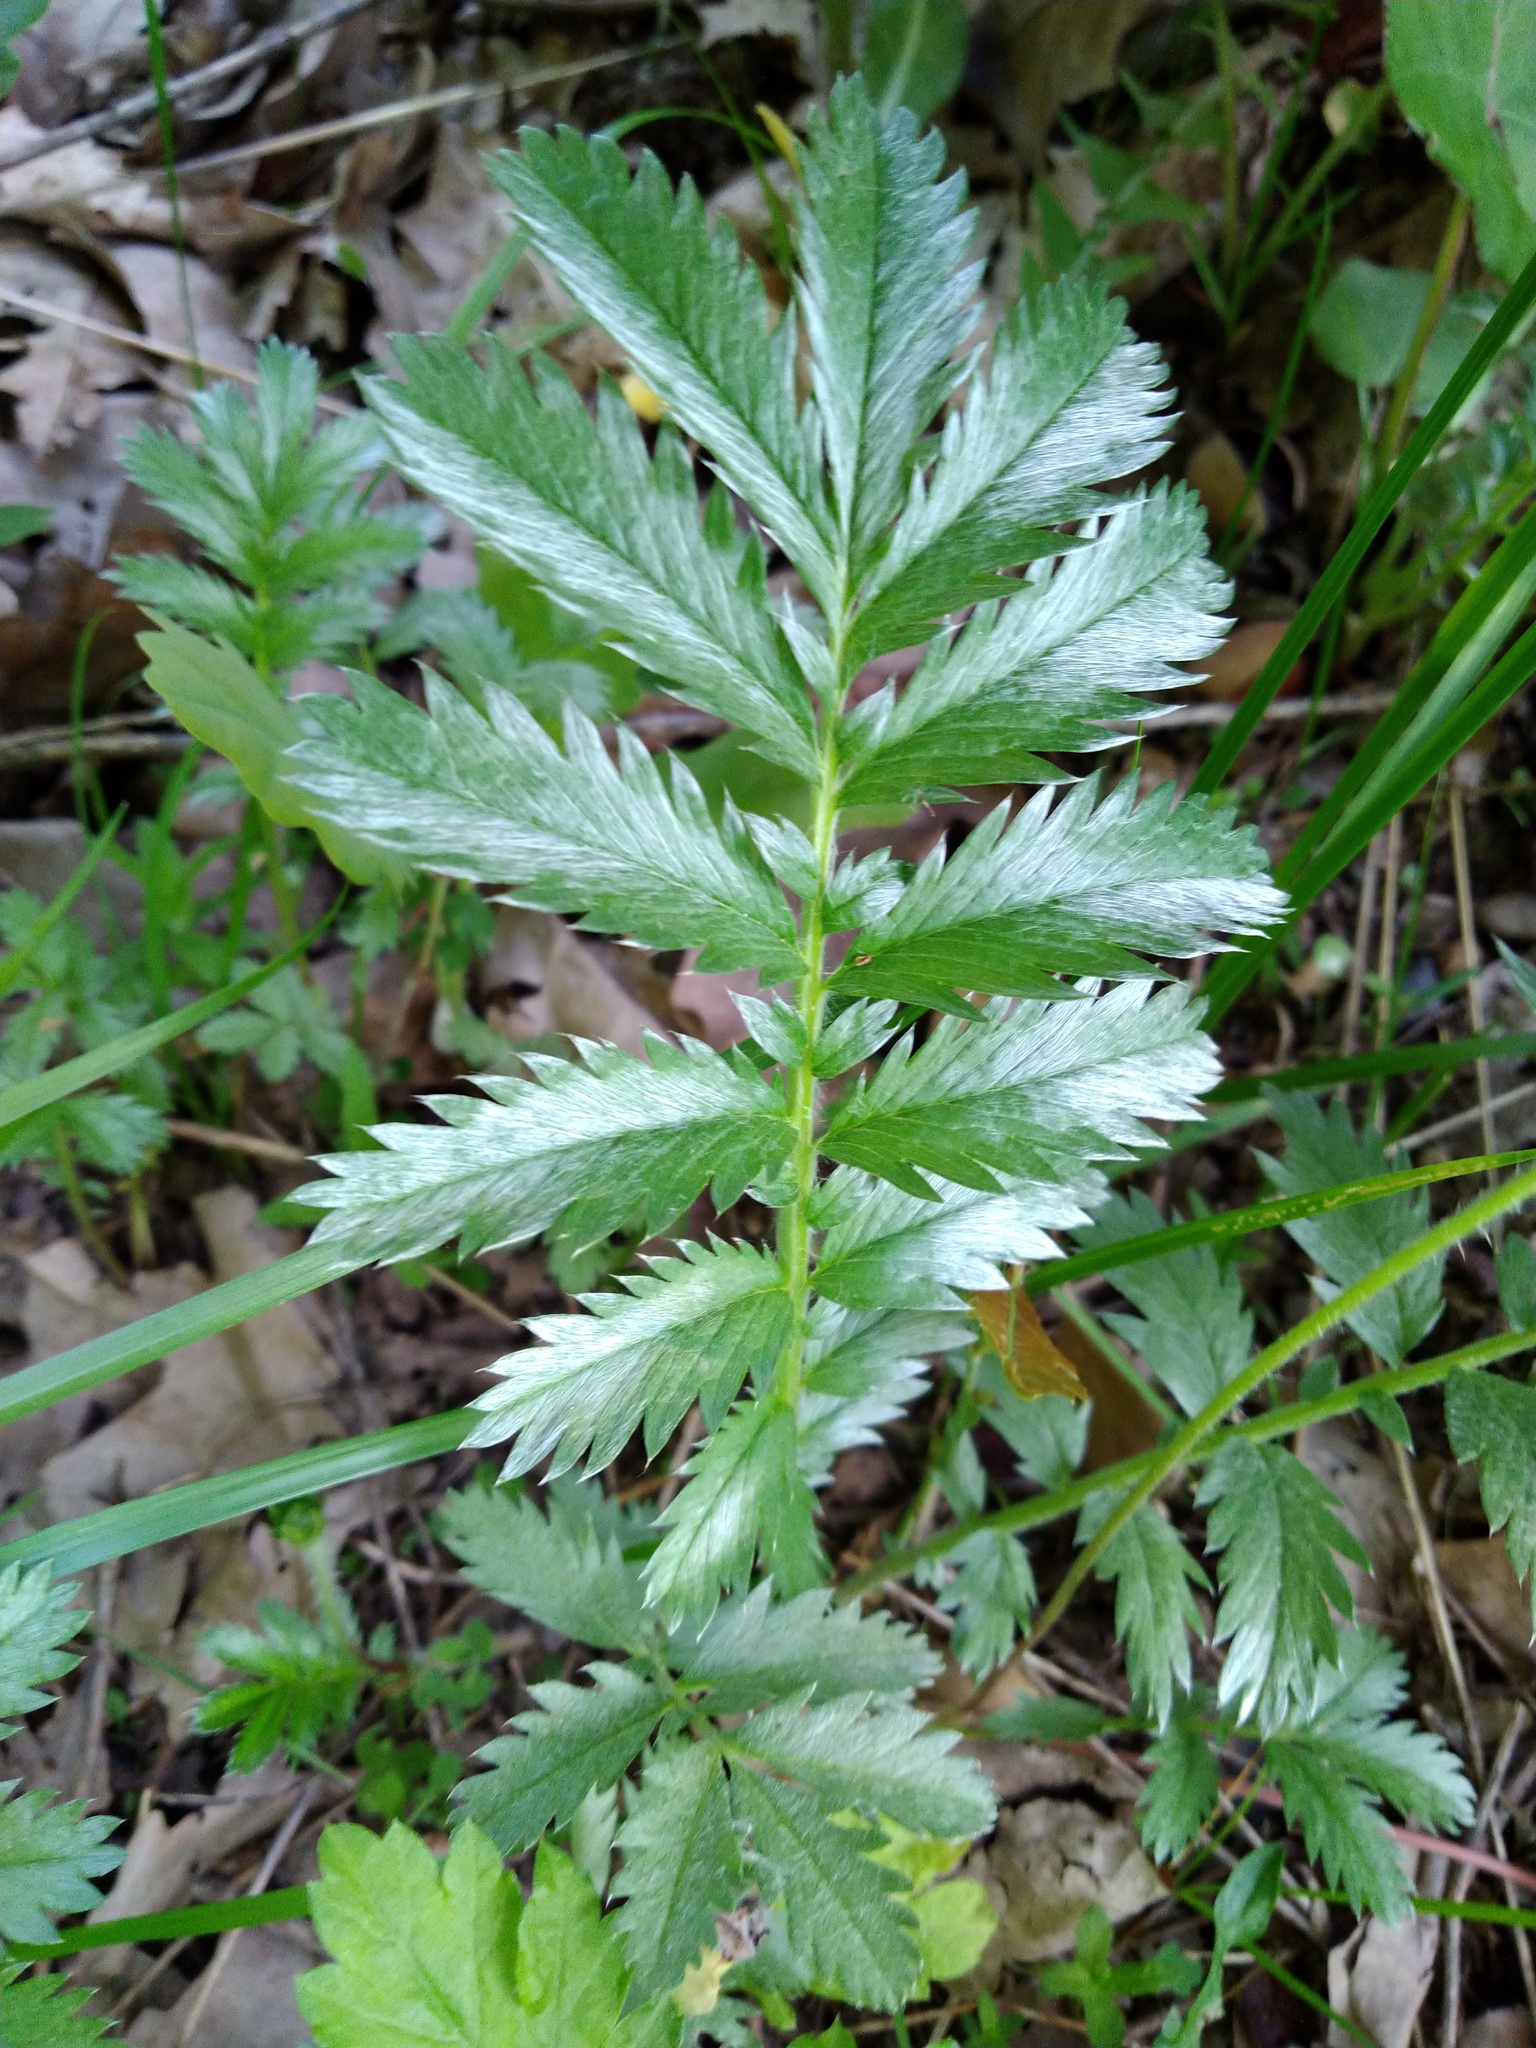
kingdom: Plantae
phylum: Tracheophyta
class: Magnoliopsida
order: Rosales
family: Rosaceae
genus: Argentina
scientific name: Argentina anserina
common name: Common silverweed
